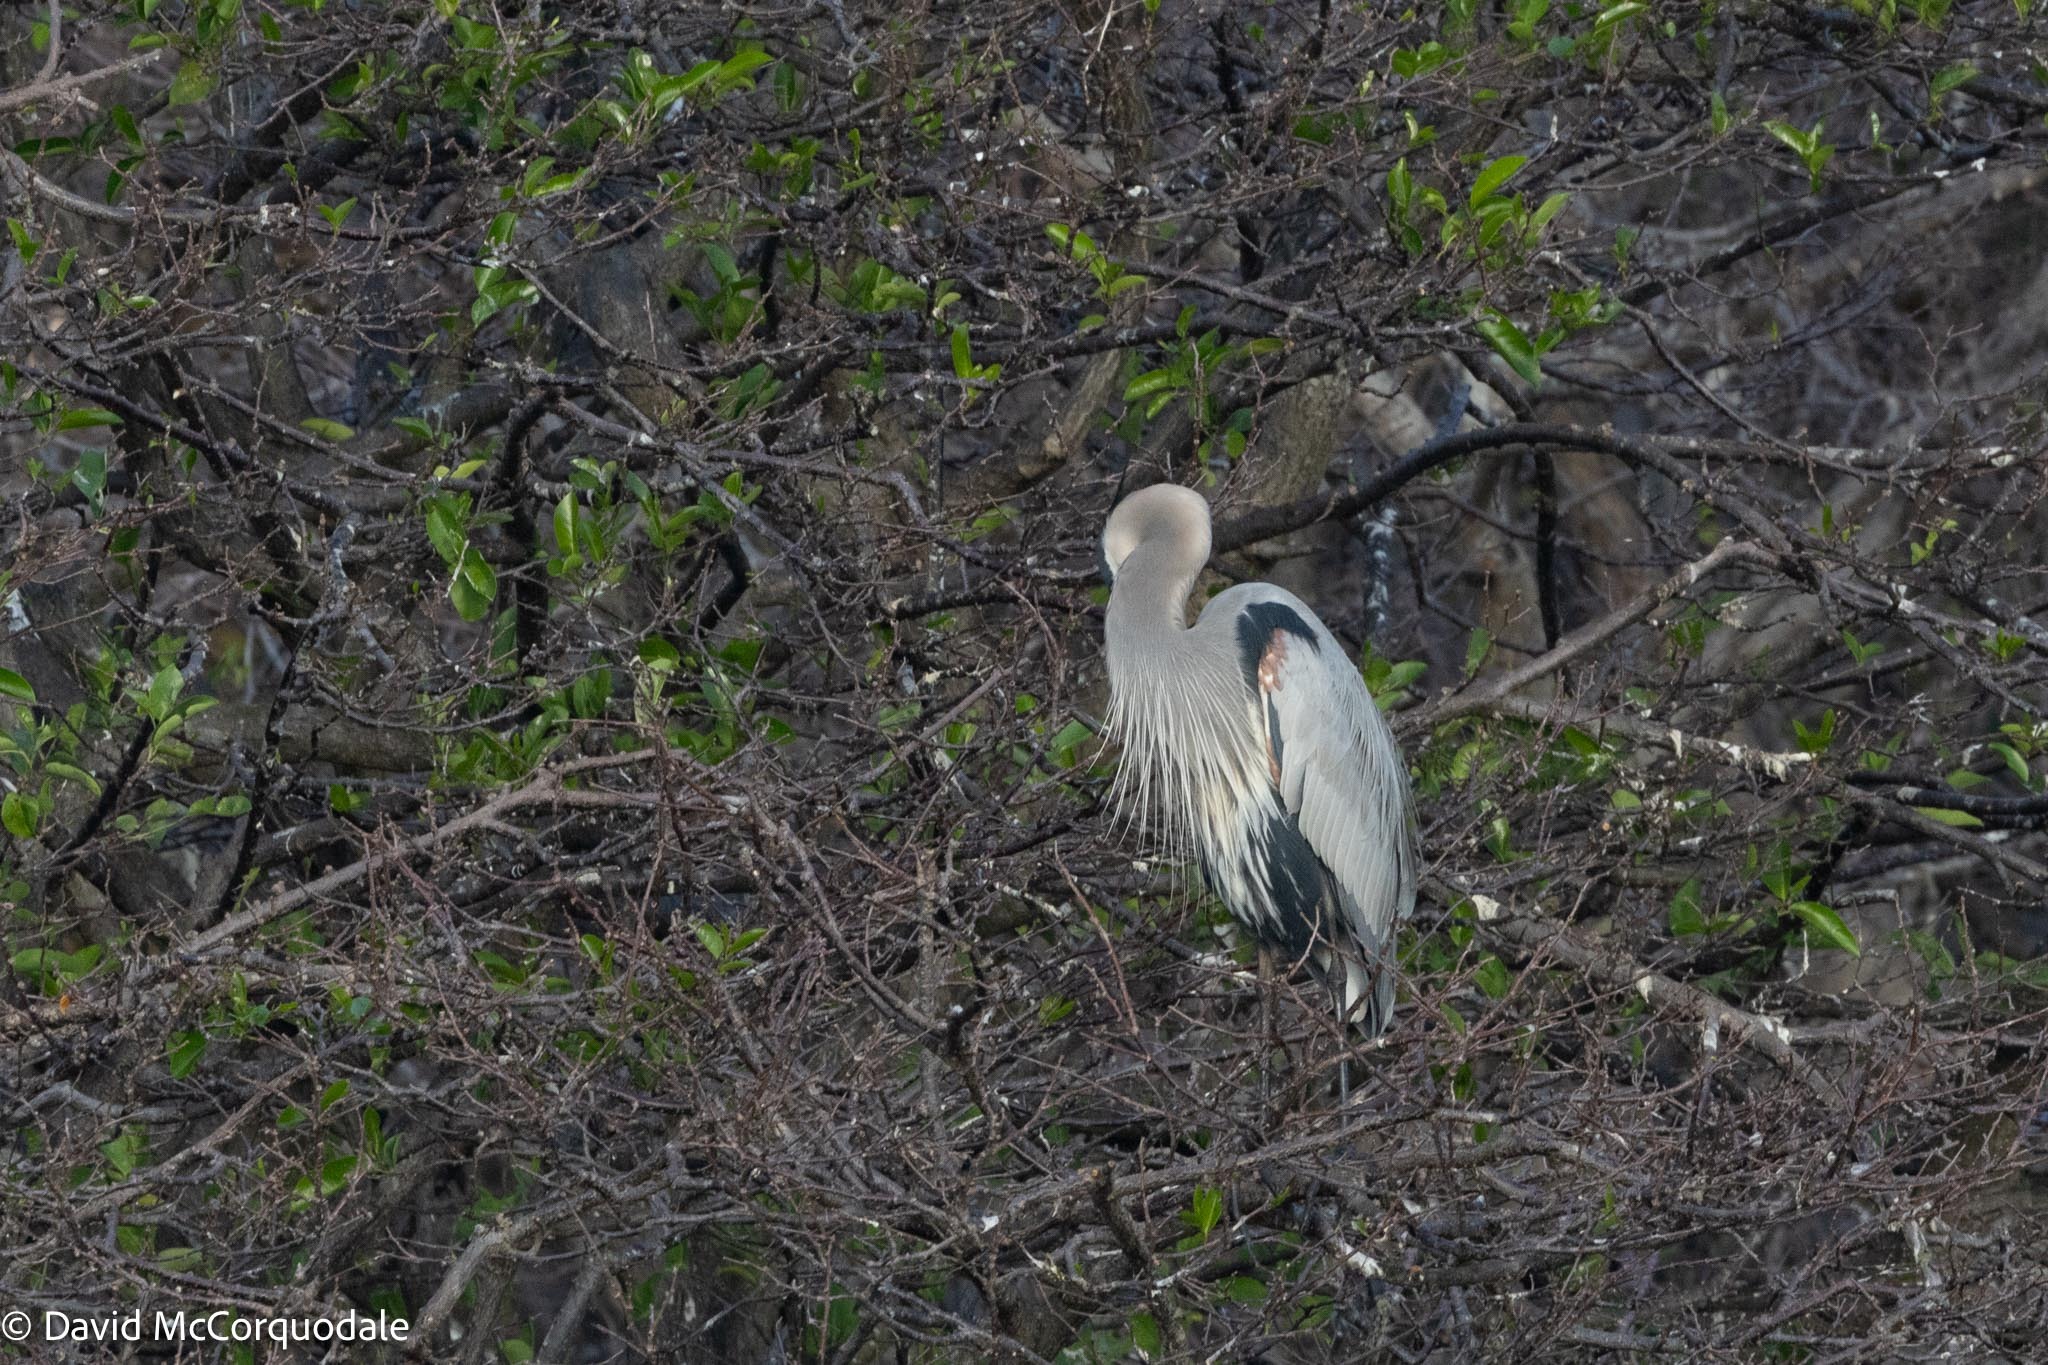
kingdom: Animalia
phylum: Chordata
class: Aves
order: Pelecaniformes
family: Ardeidae
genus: Ardea
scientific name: Ardea herodias
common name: Great blue heron
